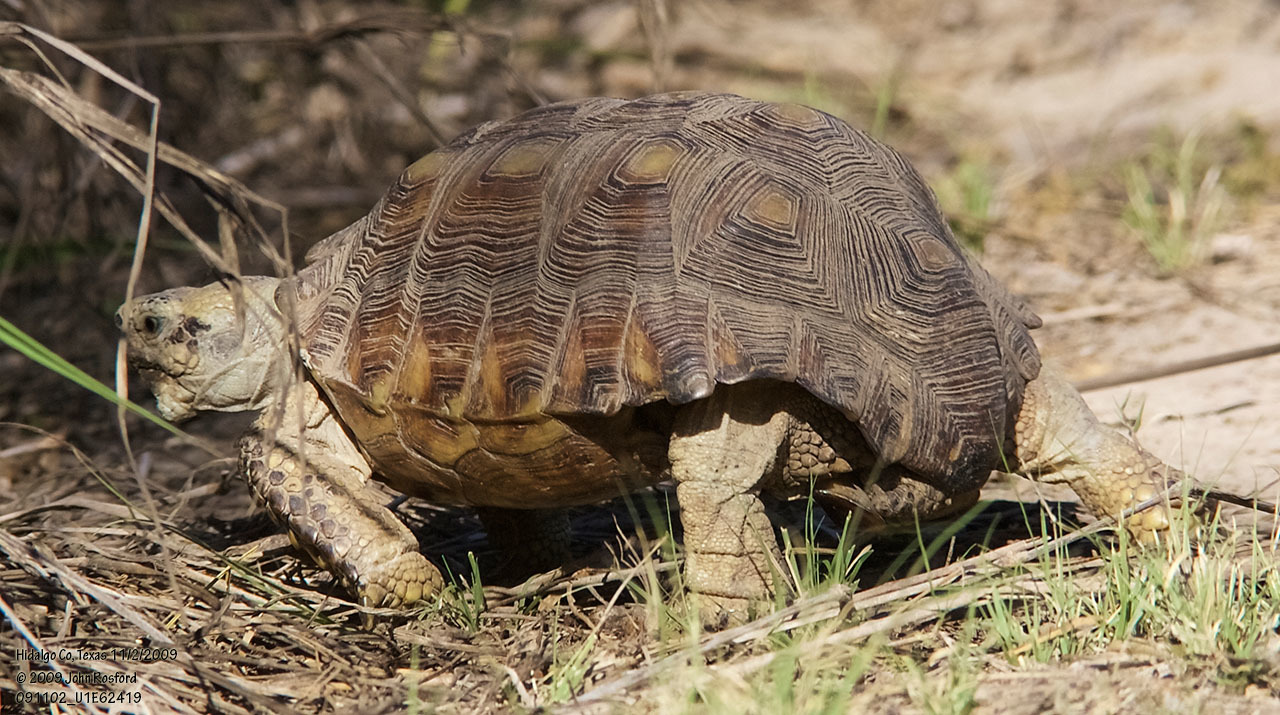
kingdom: Animalia
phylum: Chordata
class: Testudines
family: Testudinidae
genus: Gopherus
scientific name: Gopherus berlandieri
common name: Texas (gopher )tortoise
